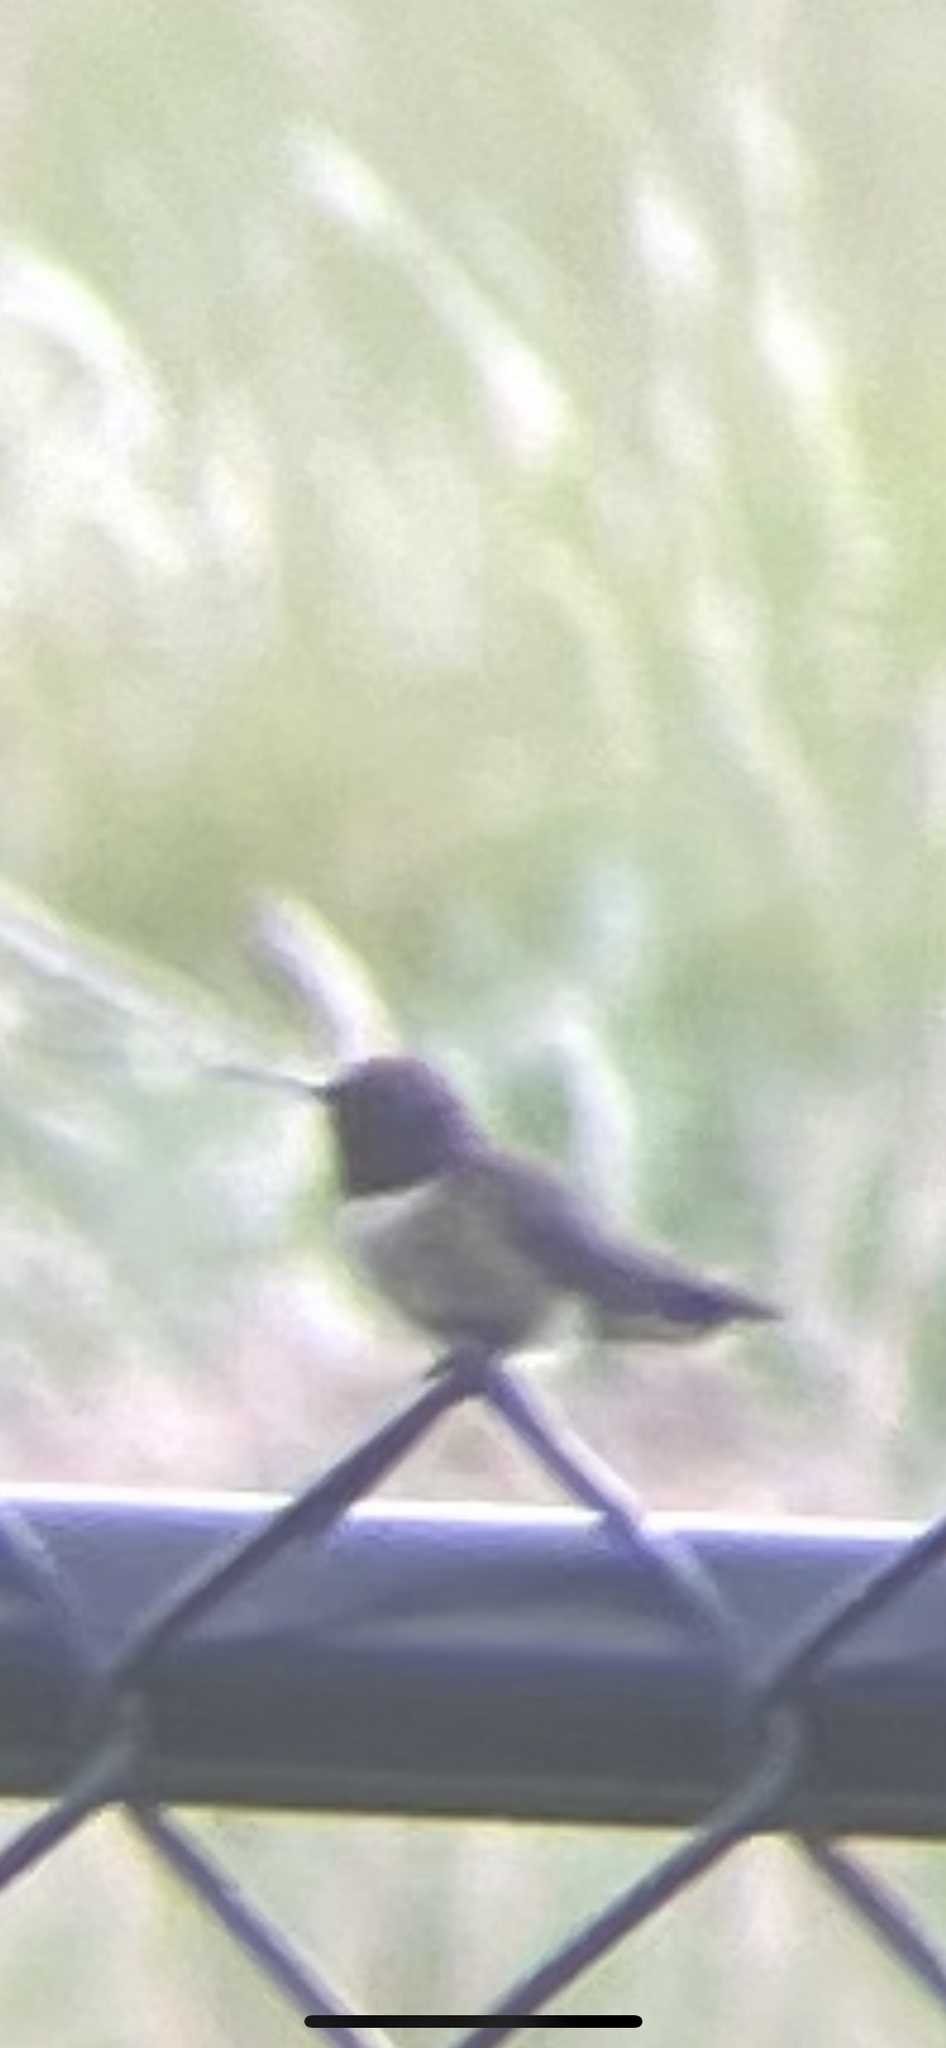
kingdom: Animalia
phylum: Chordata
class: Aves
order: Apodiformes
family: Trochilidae
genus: Archilochus
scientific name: Archilochus colubris
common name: Ruby-throated hummingbird
